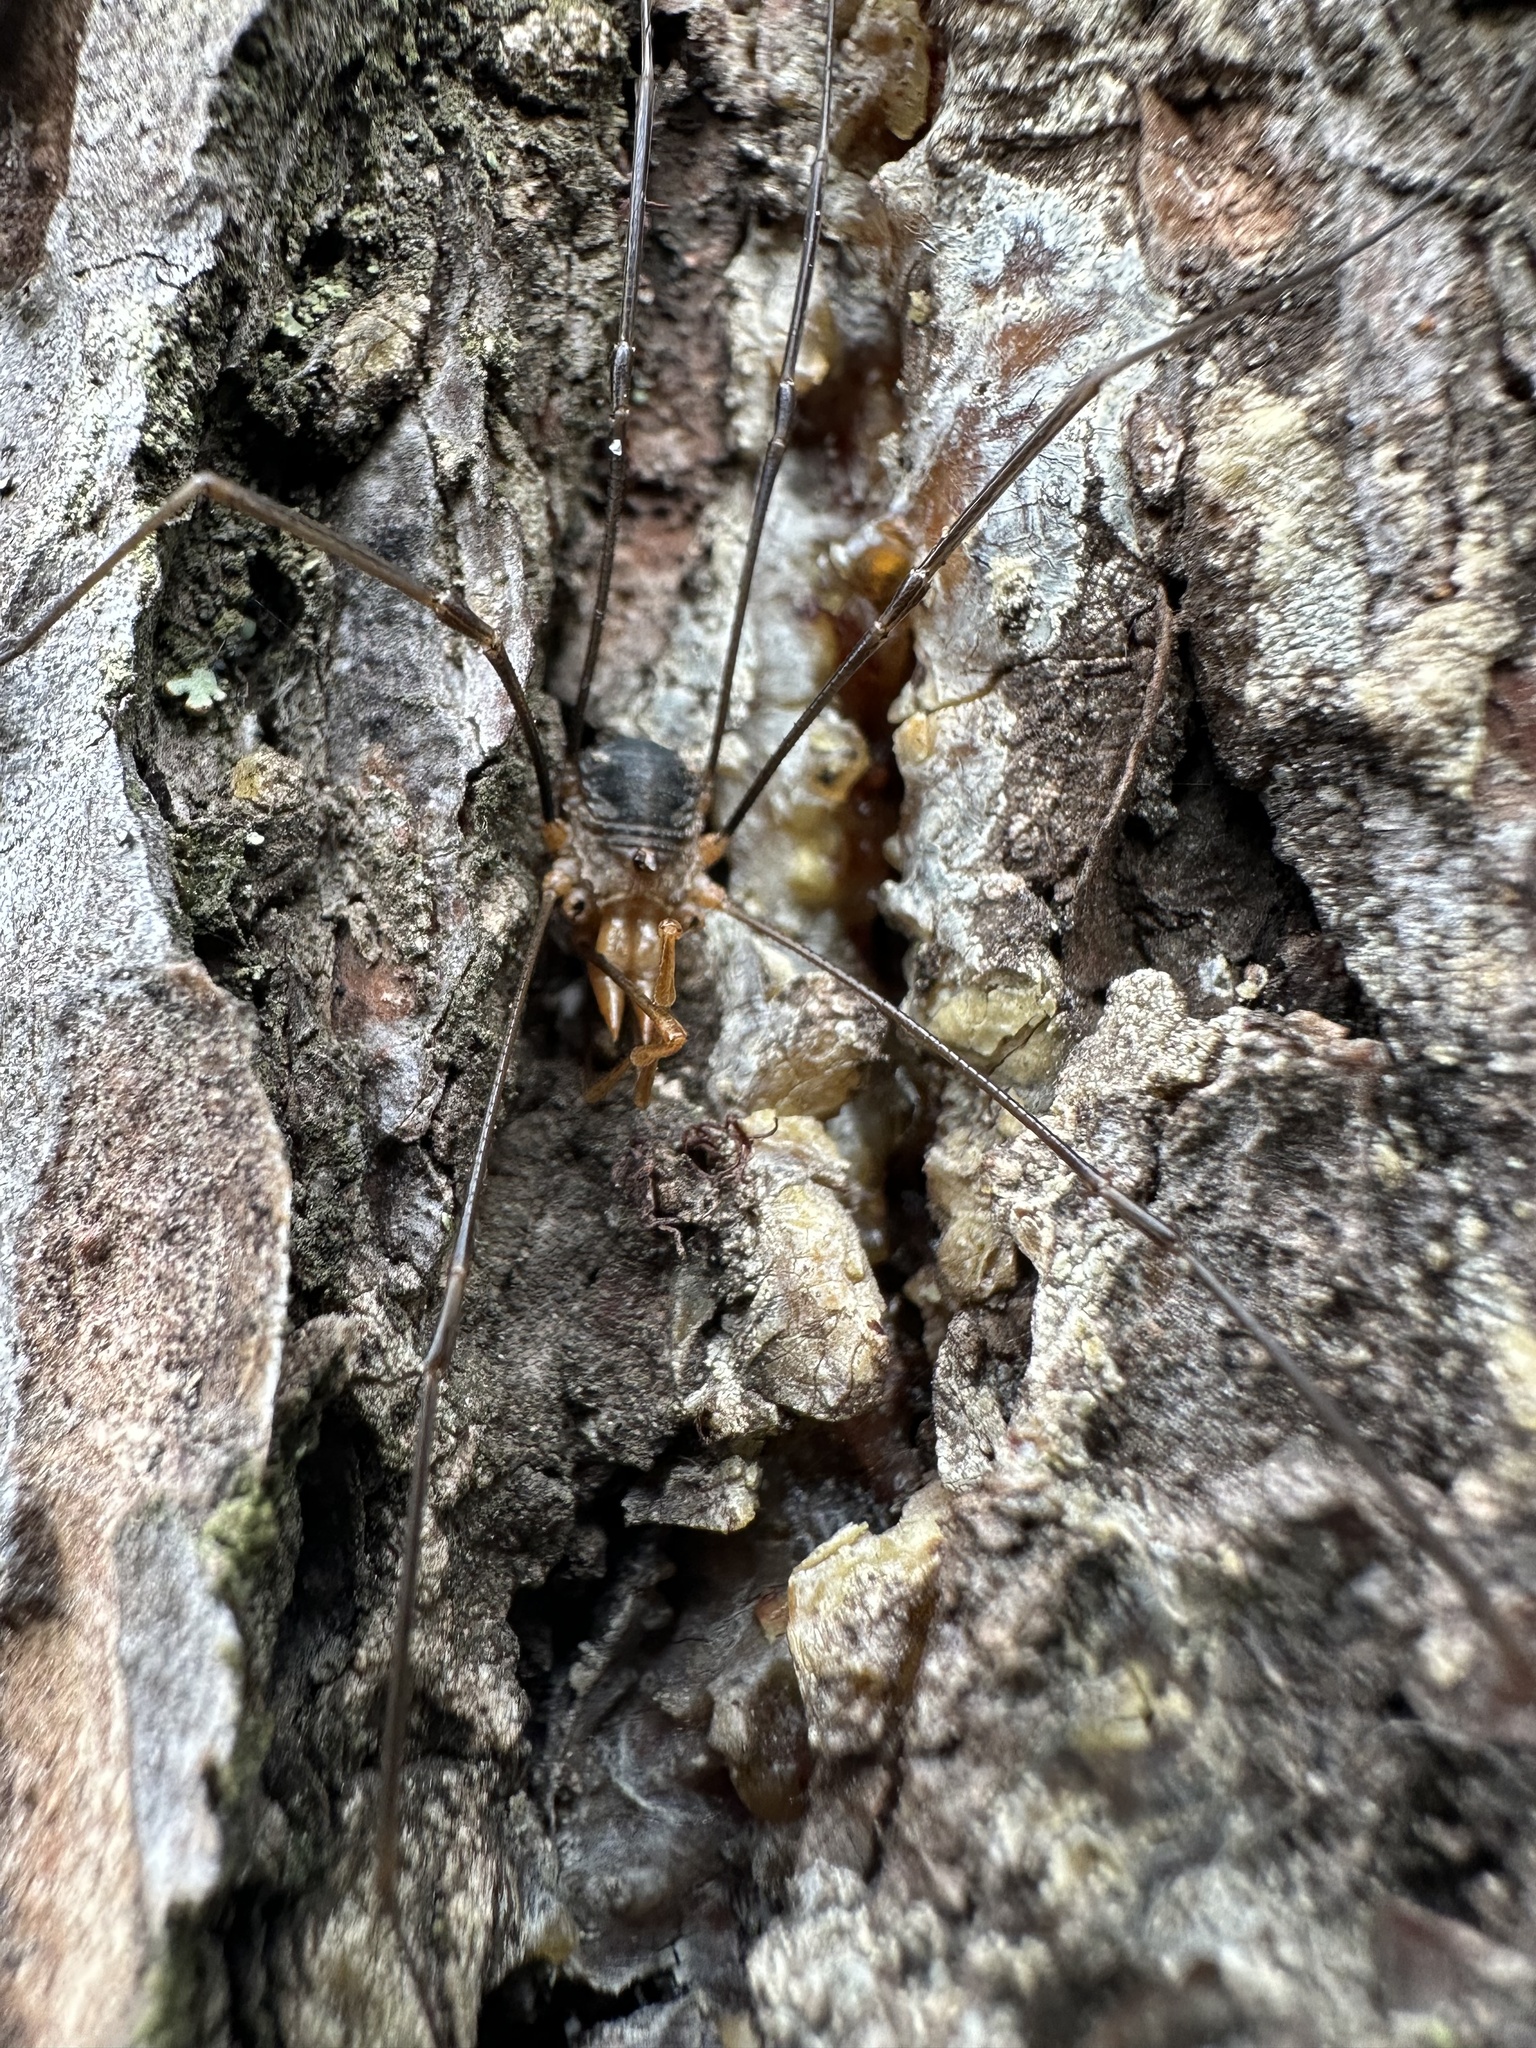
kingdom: Animalia
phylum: Arthropoda
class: Arachnida
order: Opiliones
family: Phalangiidae
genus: Phalangium
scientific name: Phalangium opilio
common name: Daddy longleg
